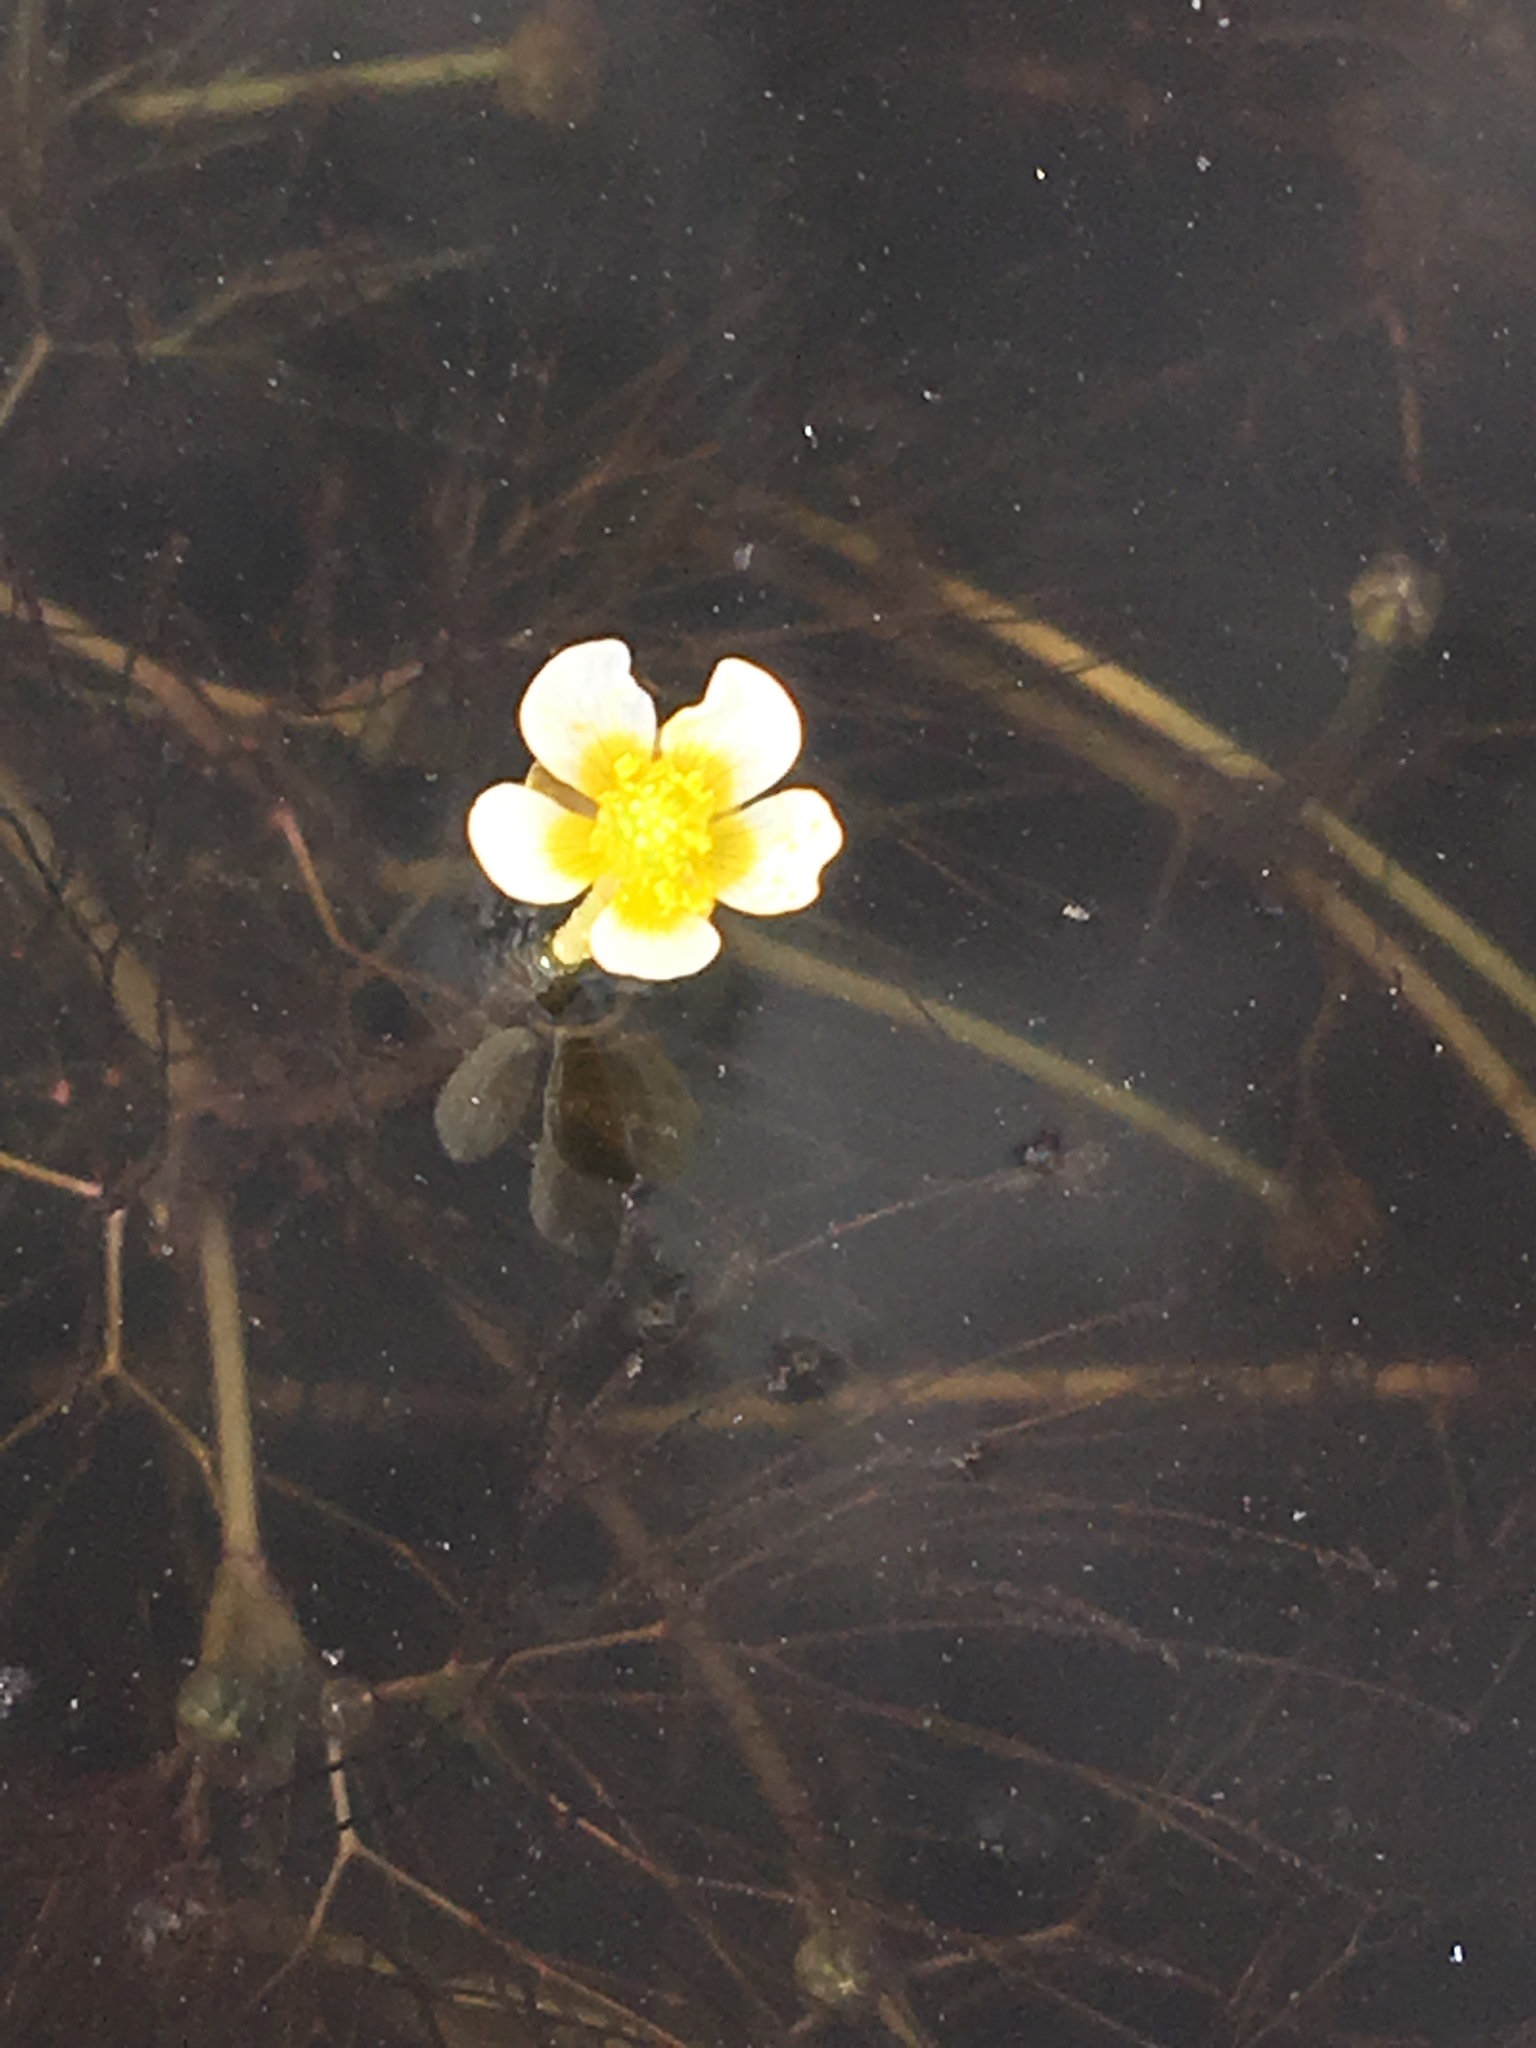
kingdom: Plantae
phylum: Tracheophyta
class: Magnoliopsida
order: Ranunculales
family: Ranunculaceae
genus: Ranunculus
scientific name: Ranunculus trichophyllus
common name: Thread-leaved water-crowfoot
